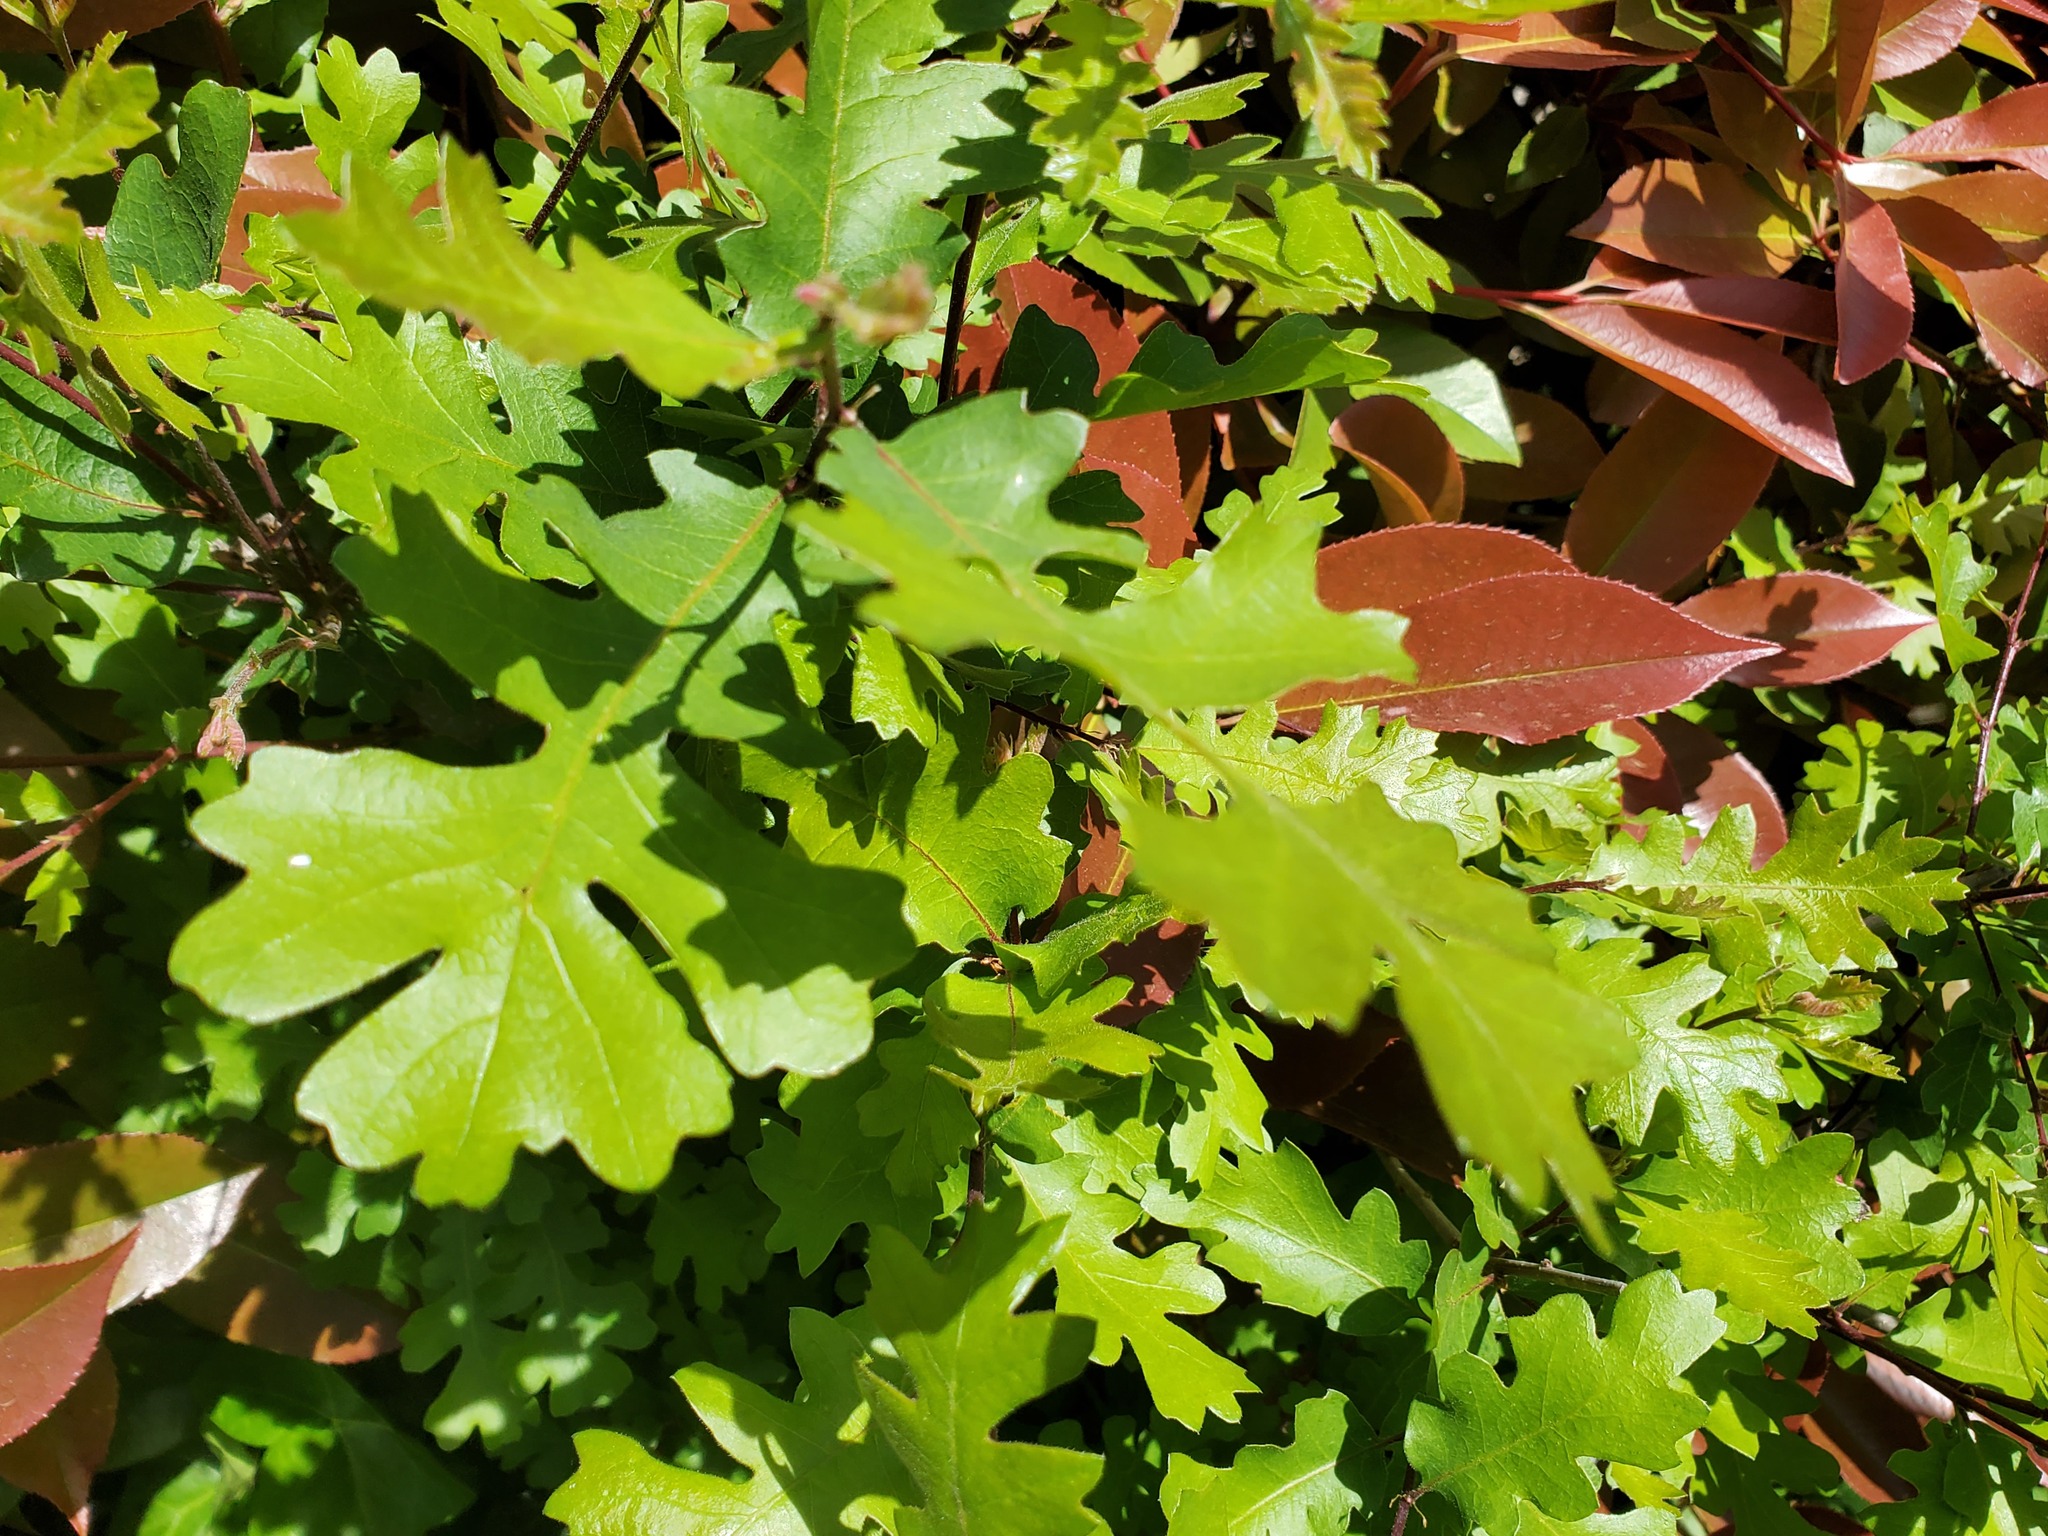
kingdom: Plantae
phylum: Tracheophyta
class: Magnoliopsida
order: Fagales
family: Fagaceae
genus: Quercus
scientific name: Quercus lobata
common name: Valley oak
